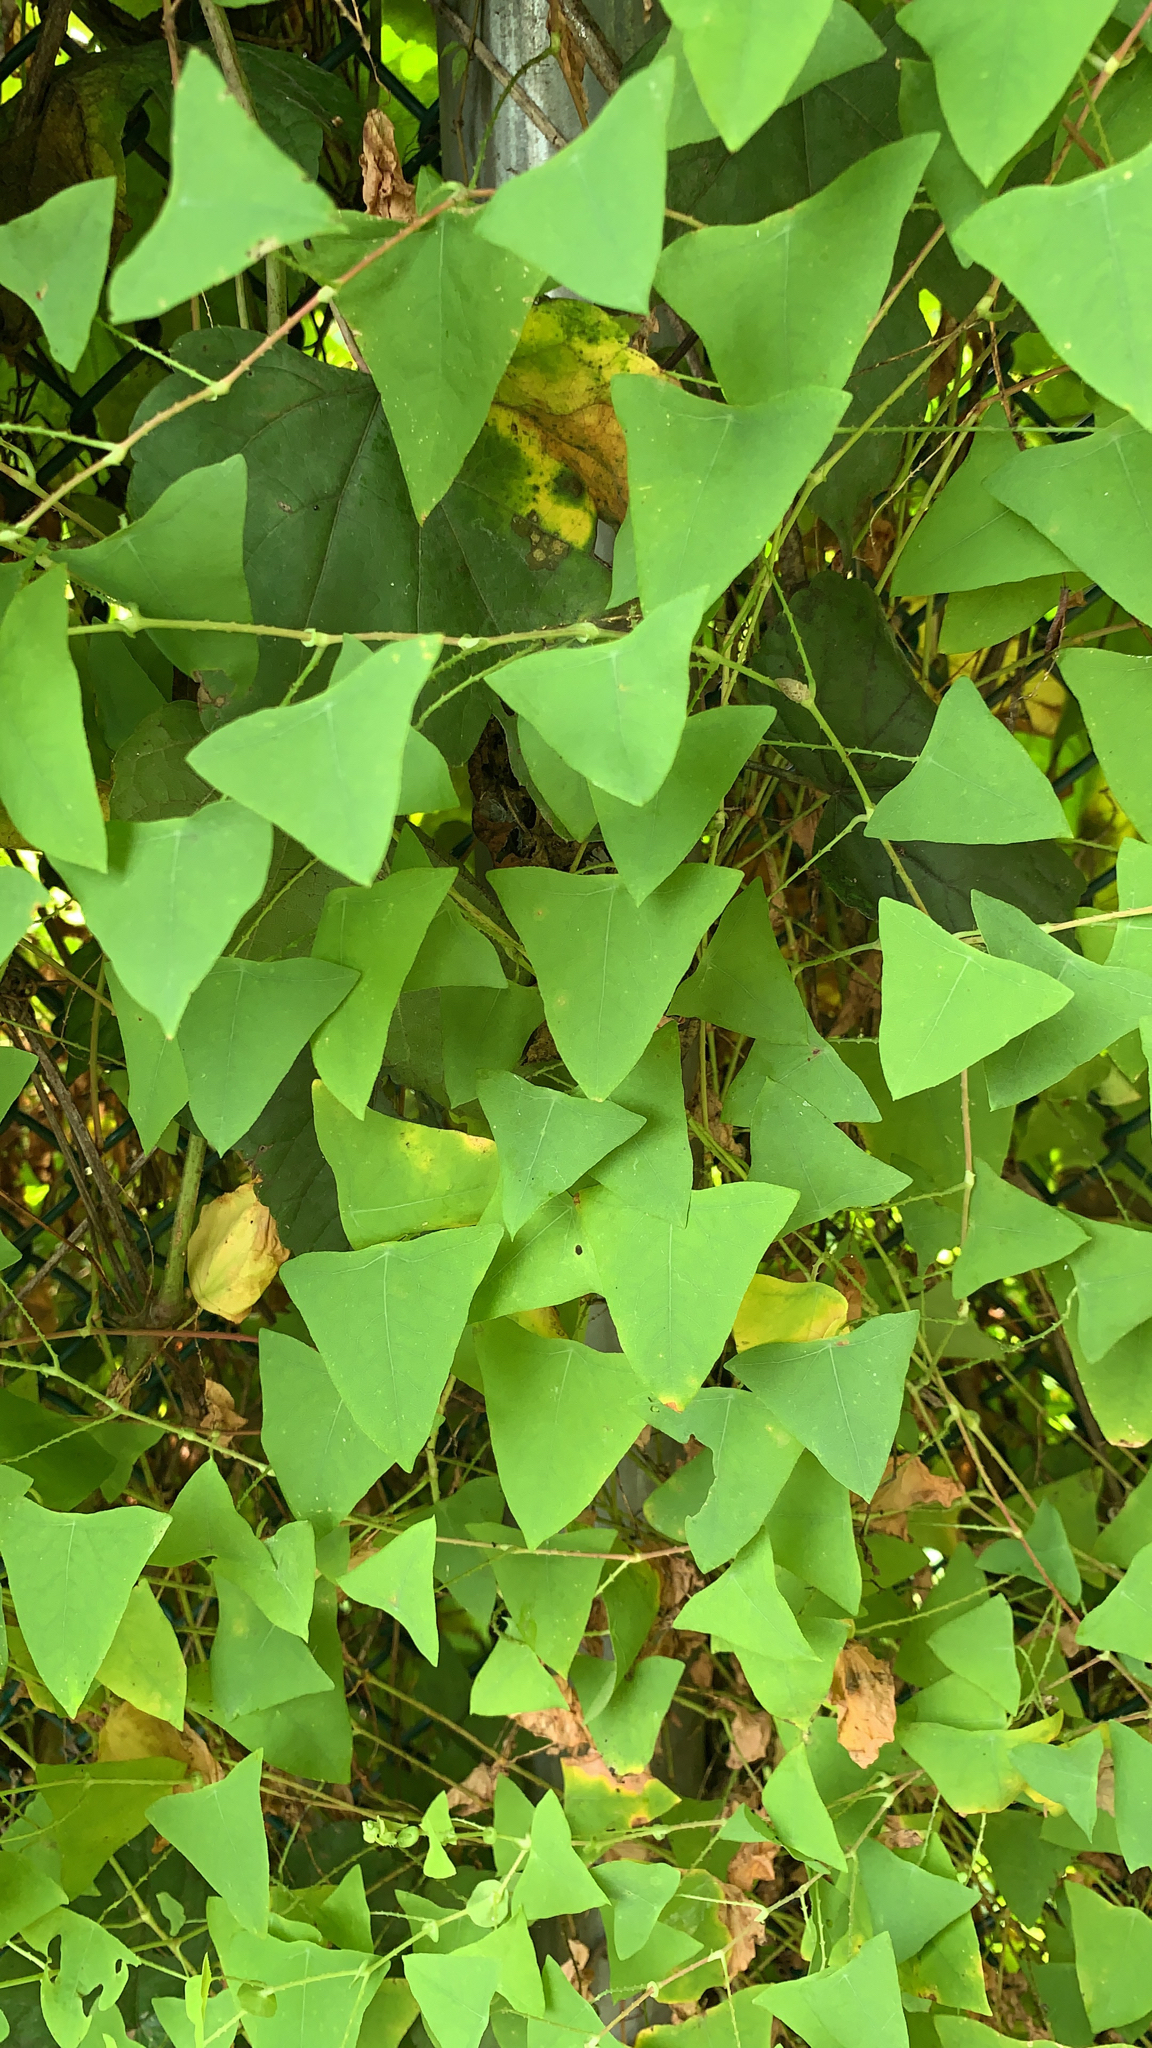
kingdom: Plantae
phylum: Tracheophyta
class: Magnoliopsida
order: Caryophyllales
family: Polygonaceae
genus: Persicaria
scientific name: Persicaria perfoliata
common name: Asiatic tearthumb
